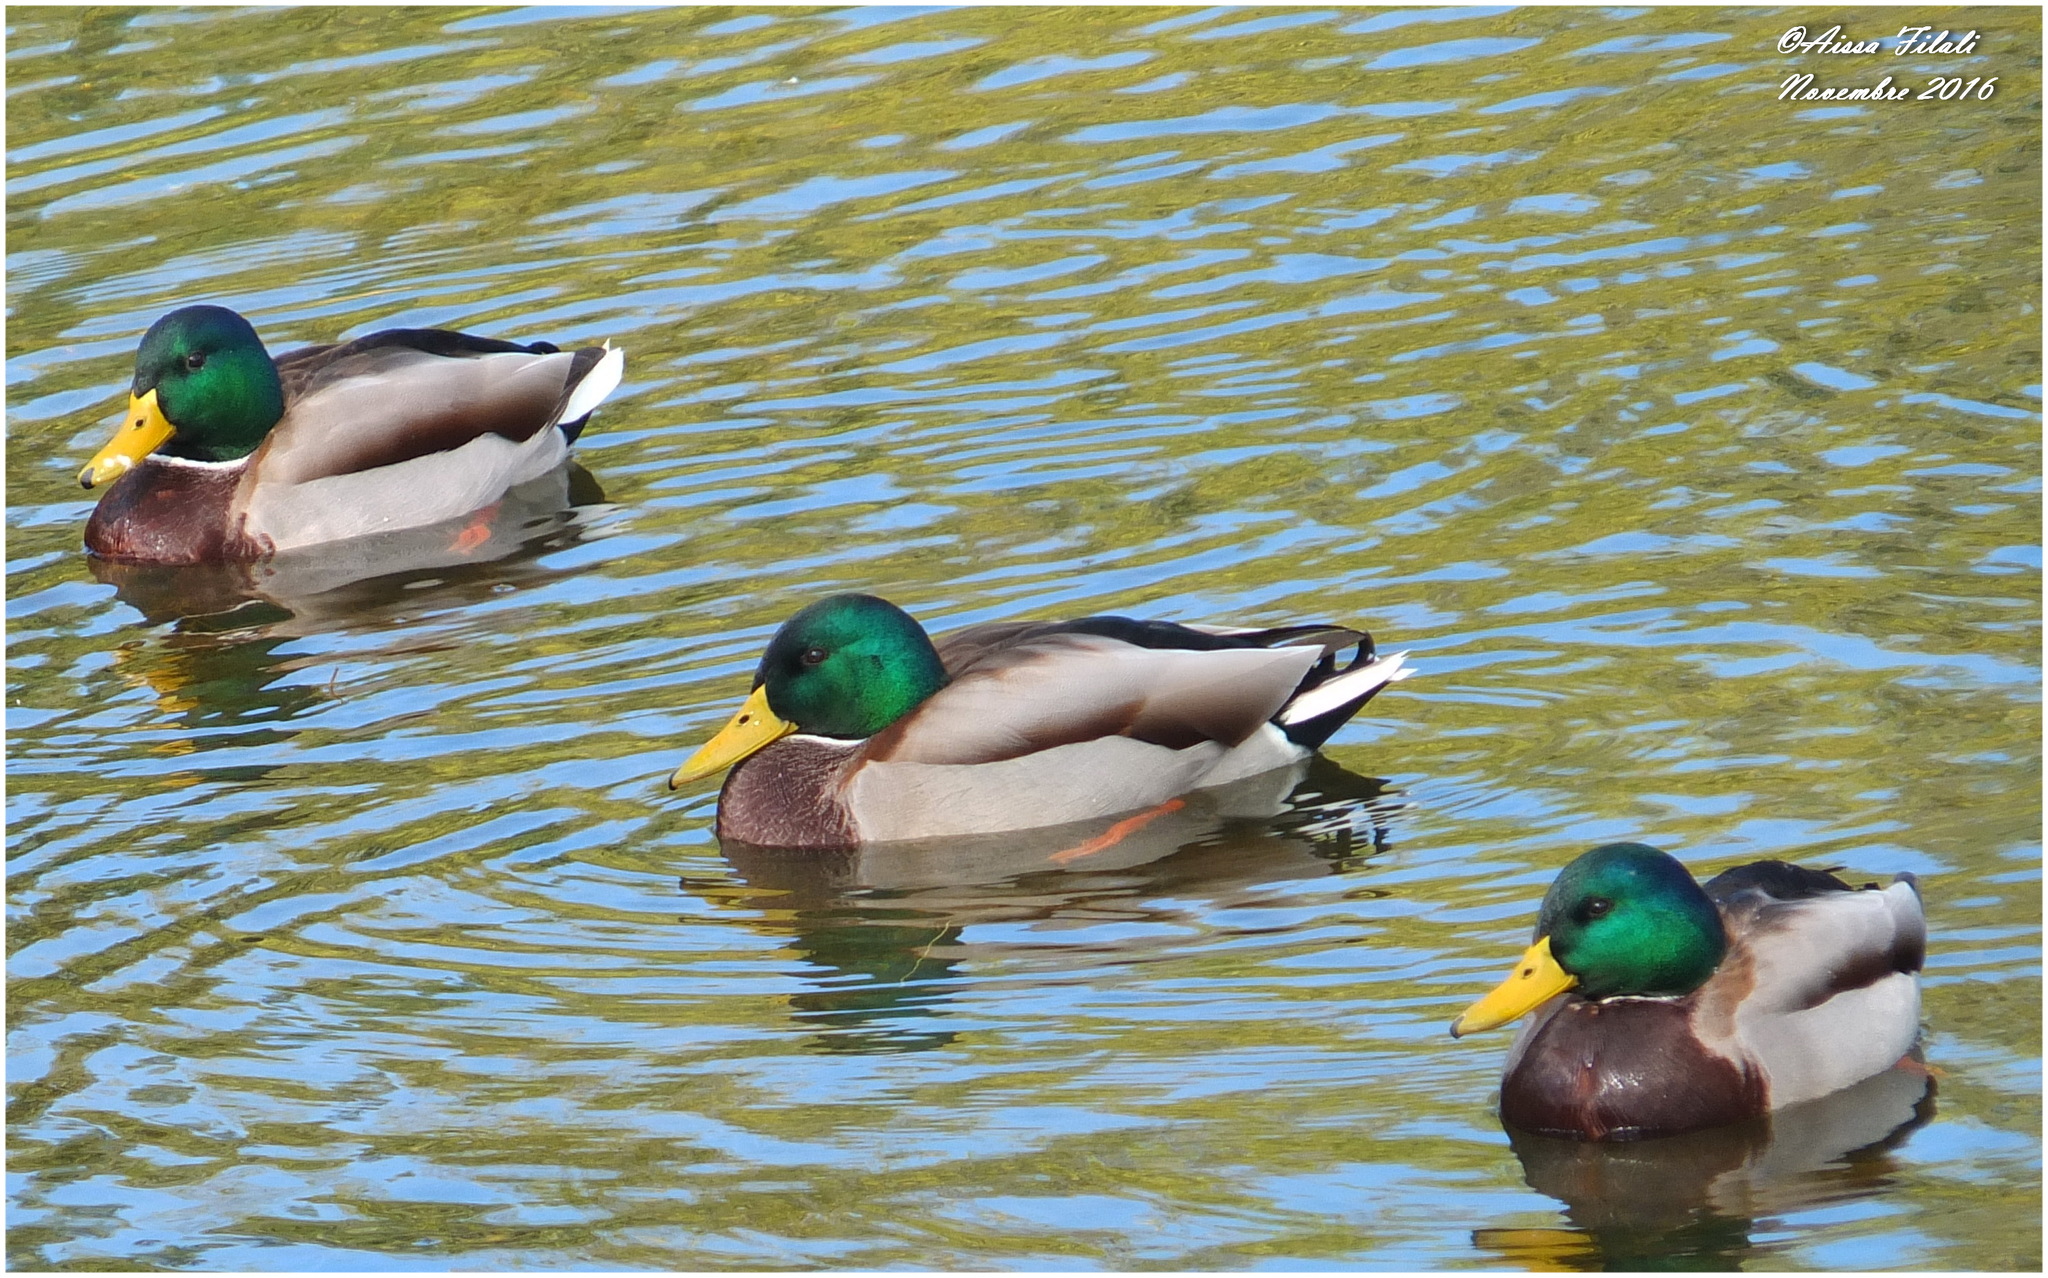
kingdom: Animalia
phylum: Chordata
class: Aves
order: Anseriformes
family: Anatidae
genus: Anas
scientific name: Anas platyrhynchos
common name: Mallard
